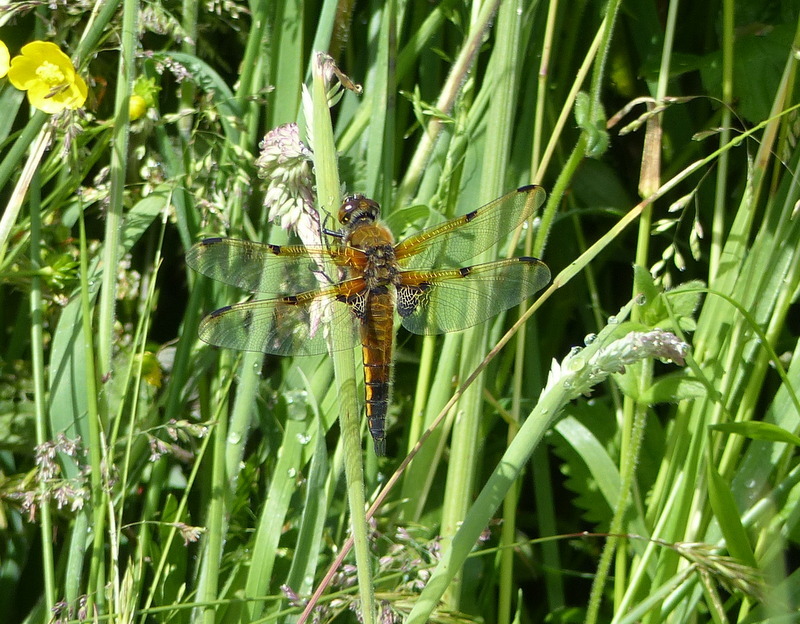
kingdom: Animalia
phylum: Arthropoda
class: Insecta
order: Odonata
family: Libellulidae
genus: Libellula
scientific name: Libellula quadrimaculata
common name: Four-spotted chaser
